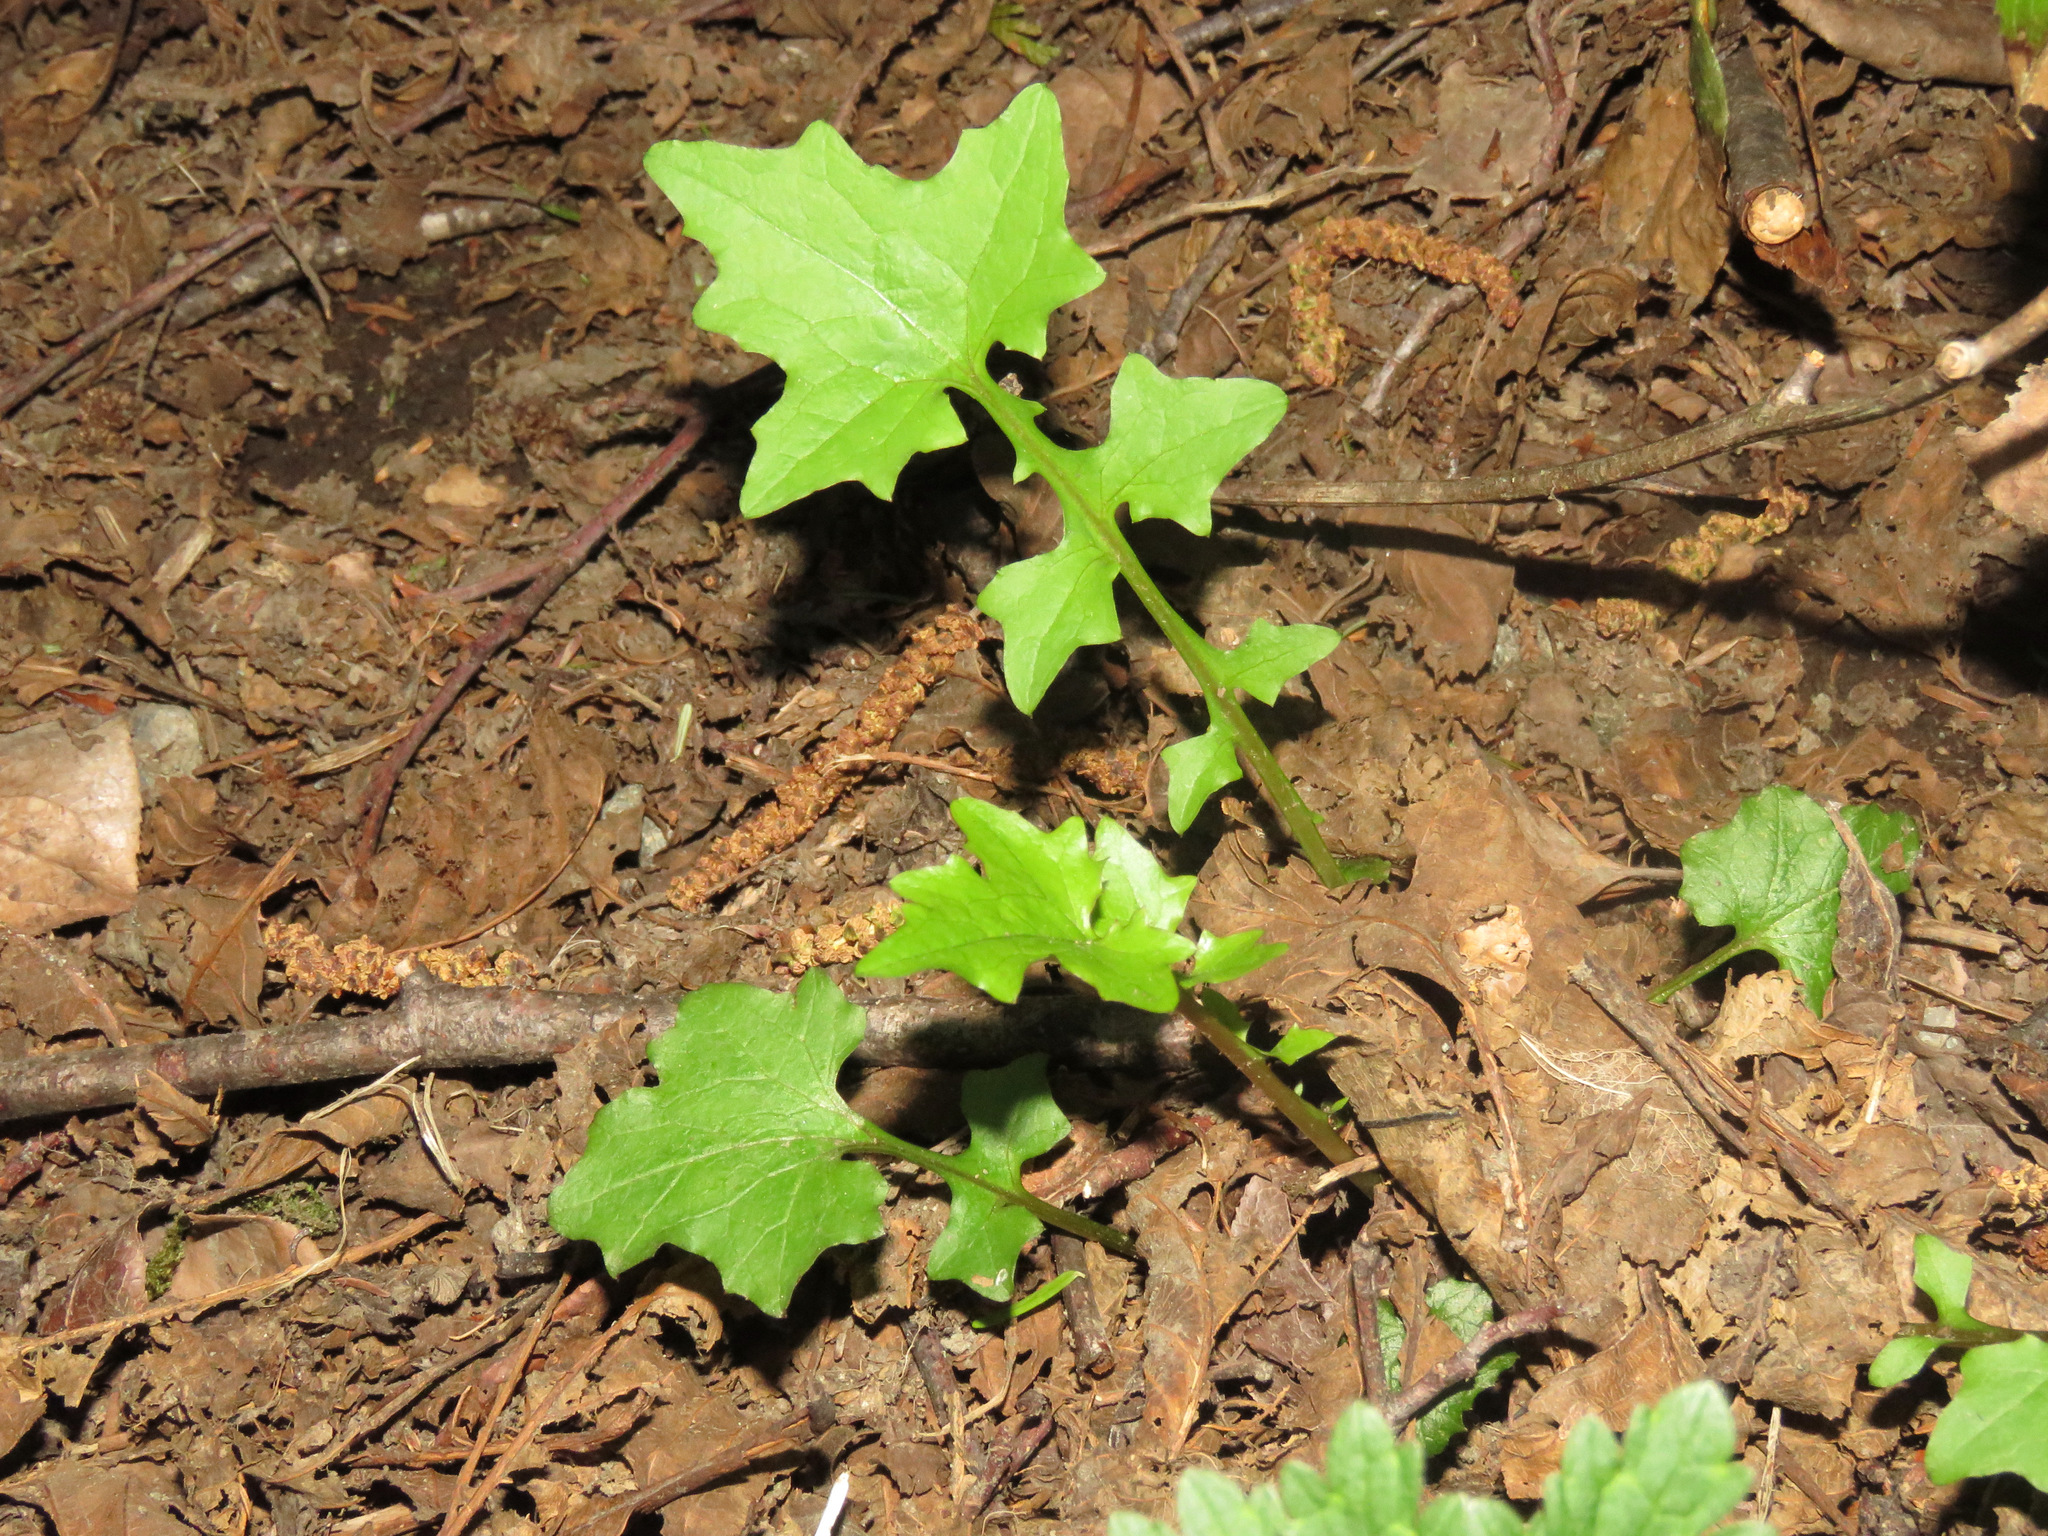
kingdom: Plantae
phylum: Tracheophyta
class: Magnoliopsida
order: Asterales
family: Asteraceae
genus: Mycelis
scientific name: Mycelis muralis
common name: Wall lettuce
